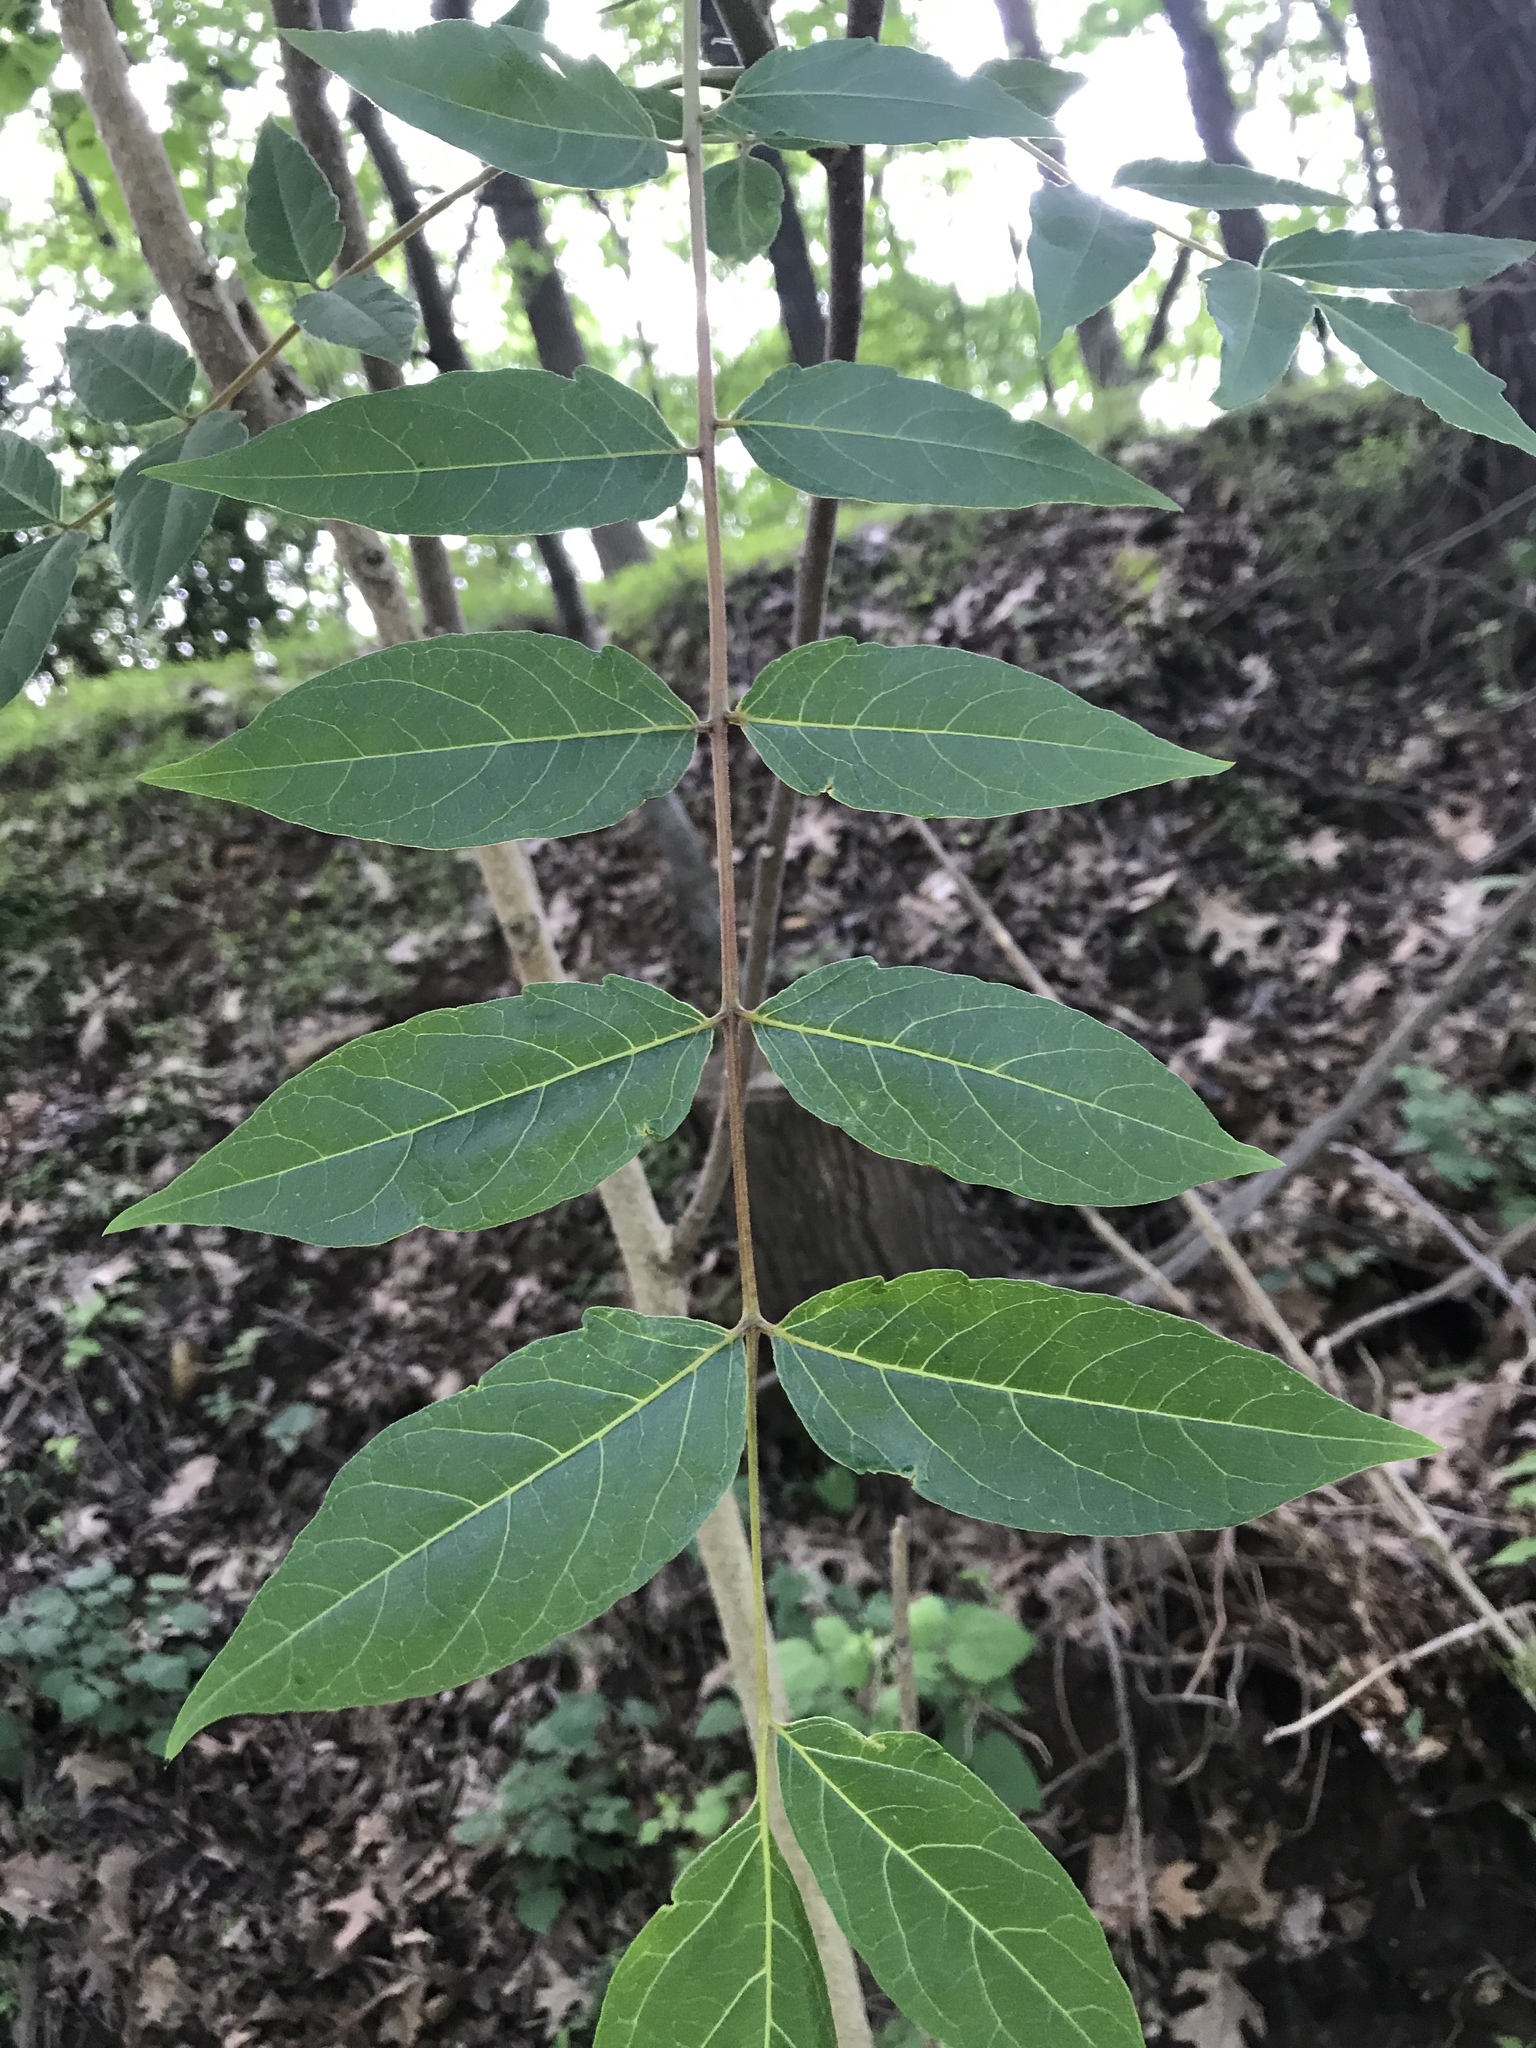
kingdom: Plantae
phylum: Tracheophyta
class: Magnoliopsida
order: Sapindales
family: Simaroubaceae
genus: Ailanthus
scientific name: Ailanthus altissima
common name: Tree-of-heaven
